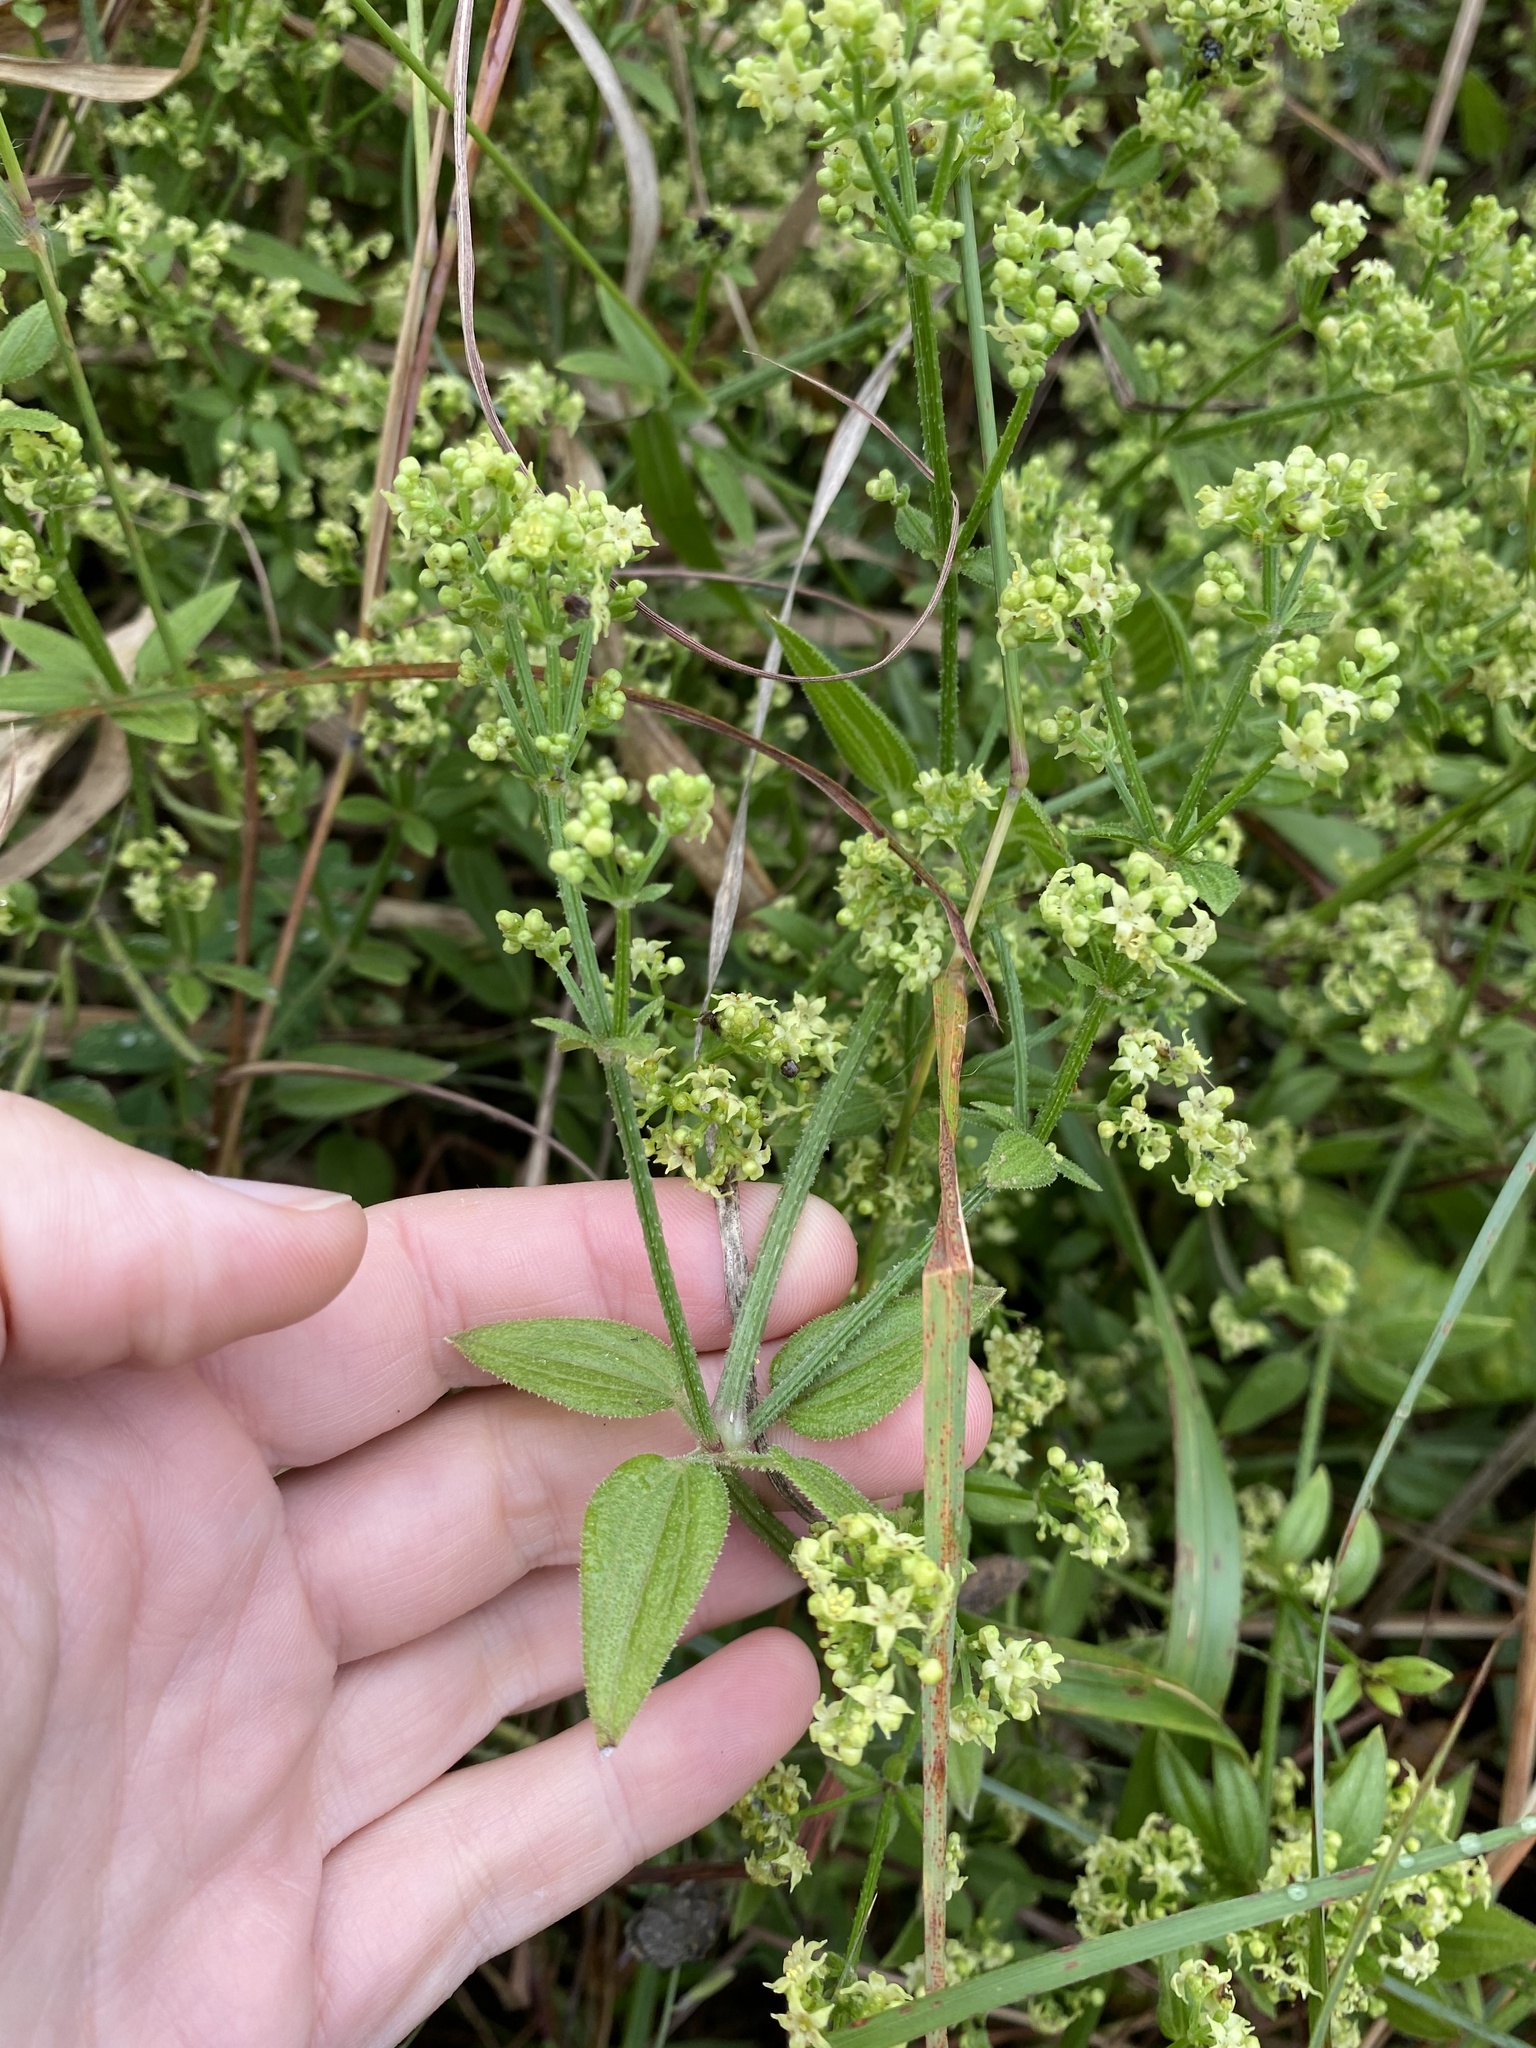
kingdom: Plantae
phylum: Tracheophyta
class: Magnoliopsida
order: Gentianales
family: Rubiaceae
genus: Rubia
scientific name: Rubia cordifolia
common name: Indian madder
